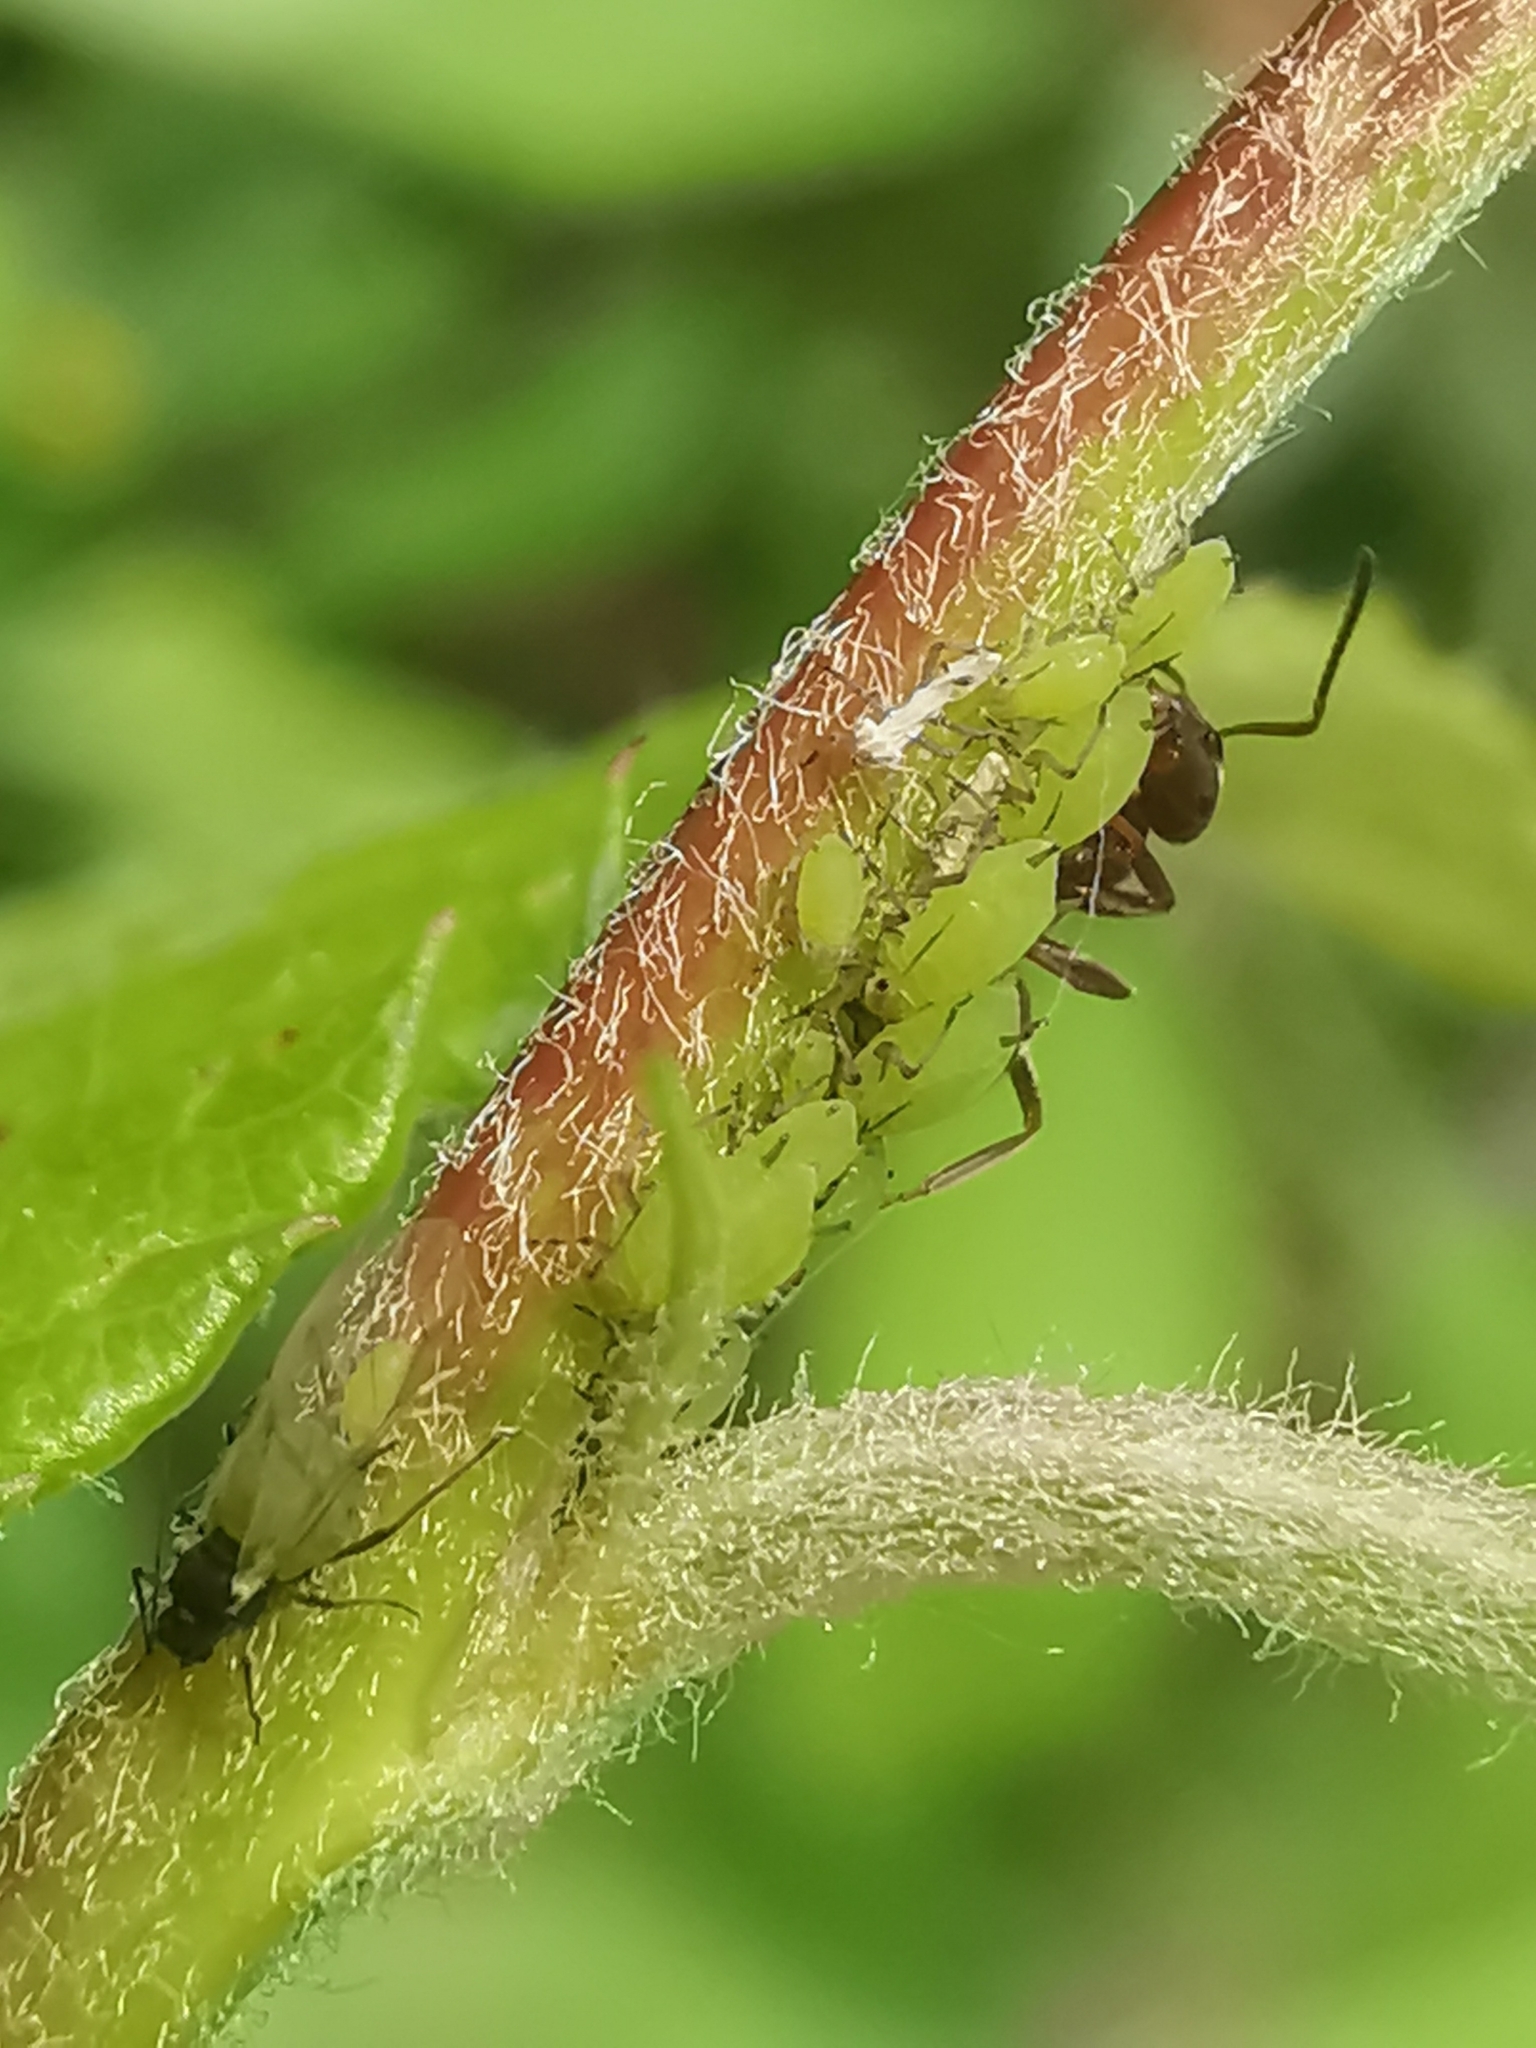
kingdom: Animalia
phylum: Arthropoda
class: Insecta
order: Hemiptera
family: Aphididae
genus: Aphis
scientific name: Aphis
